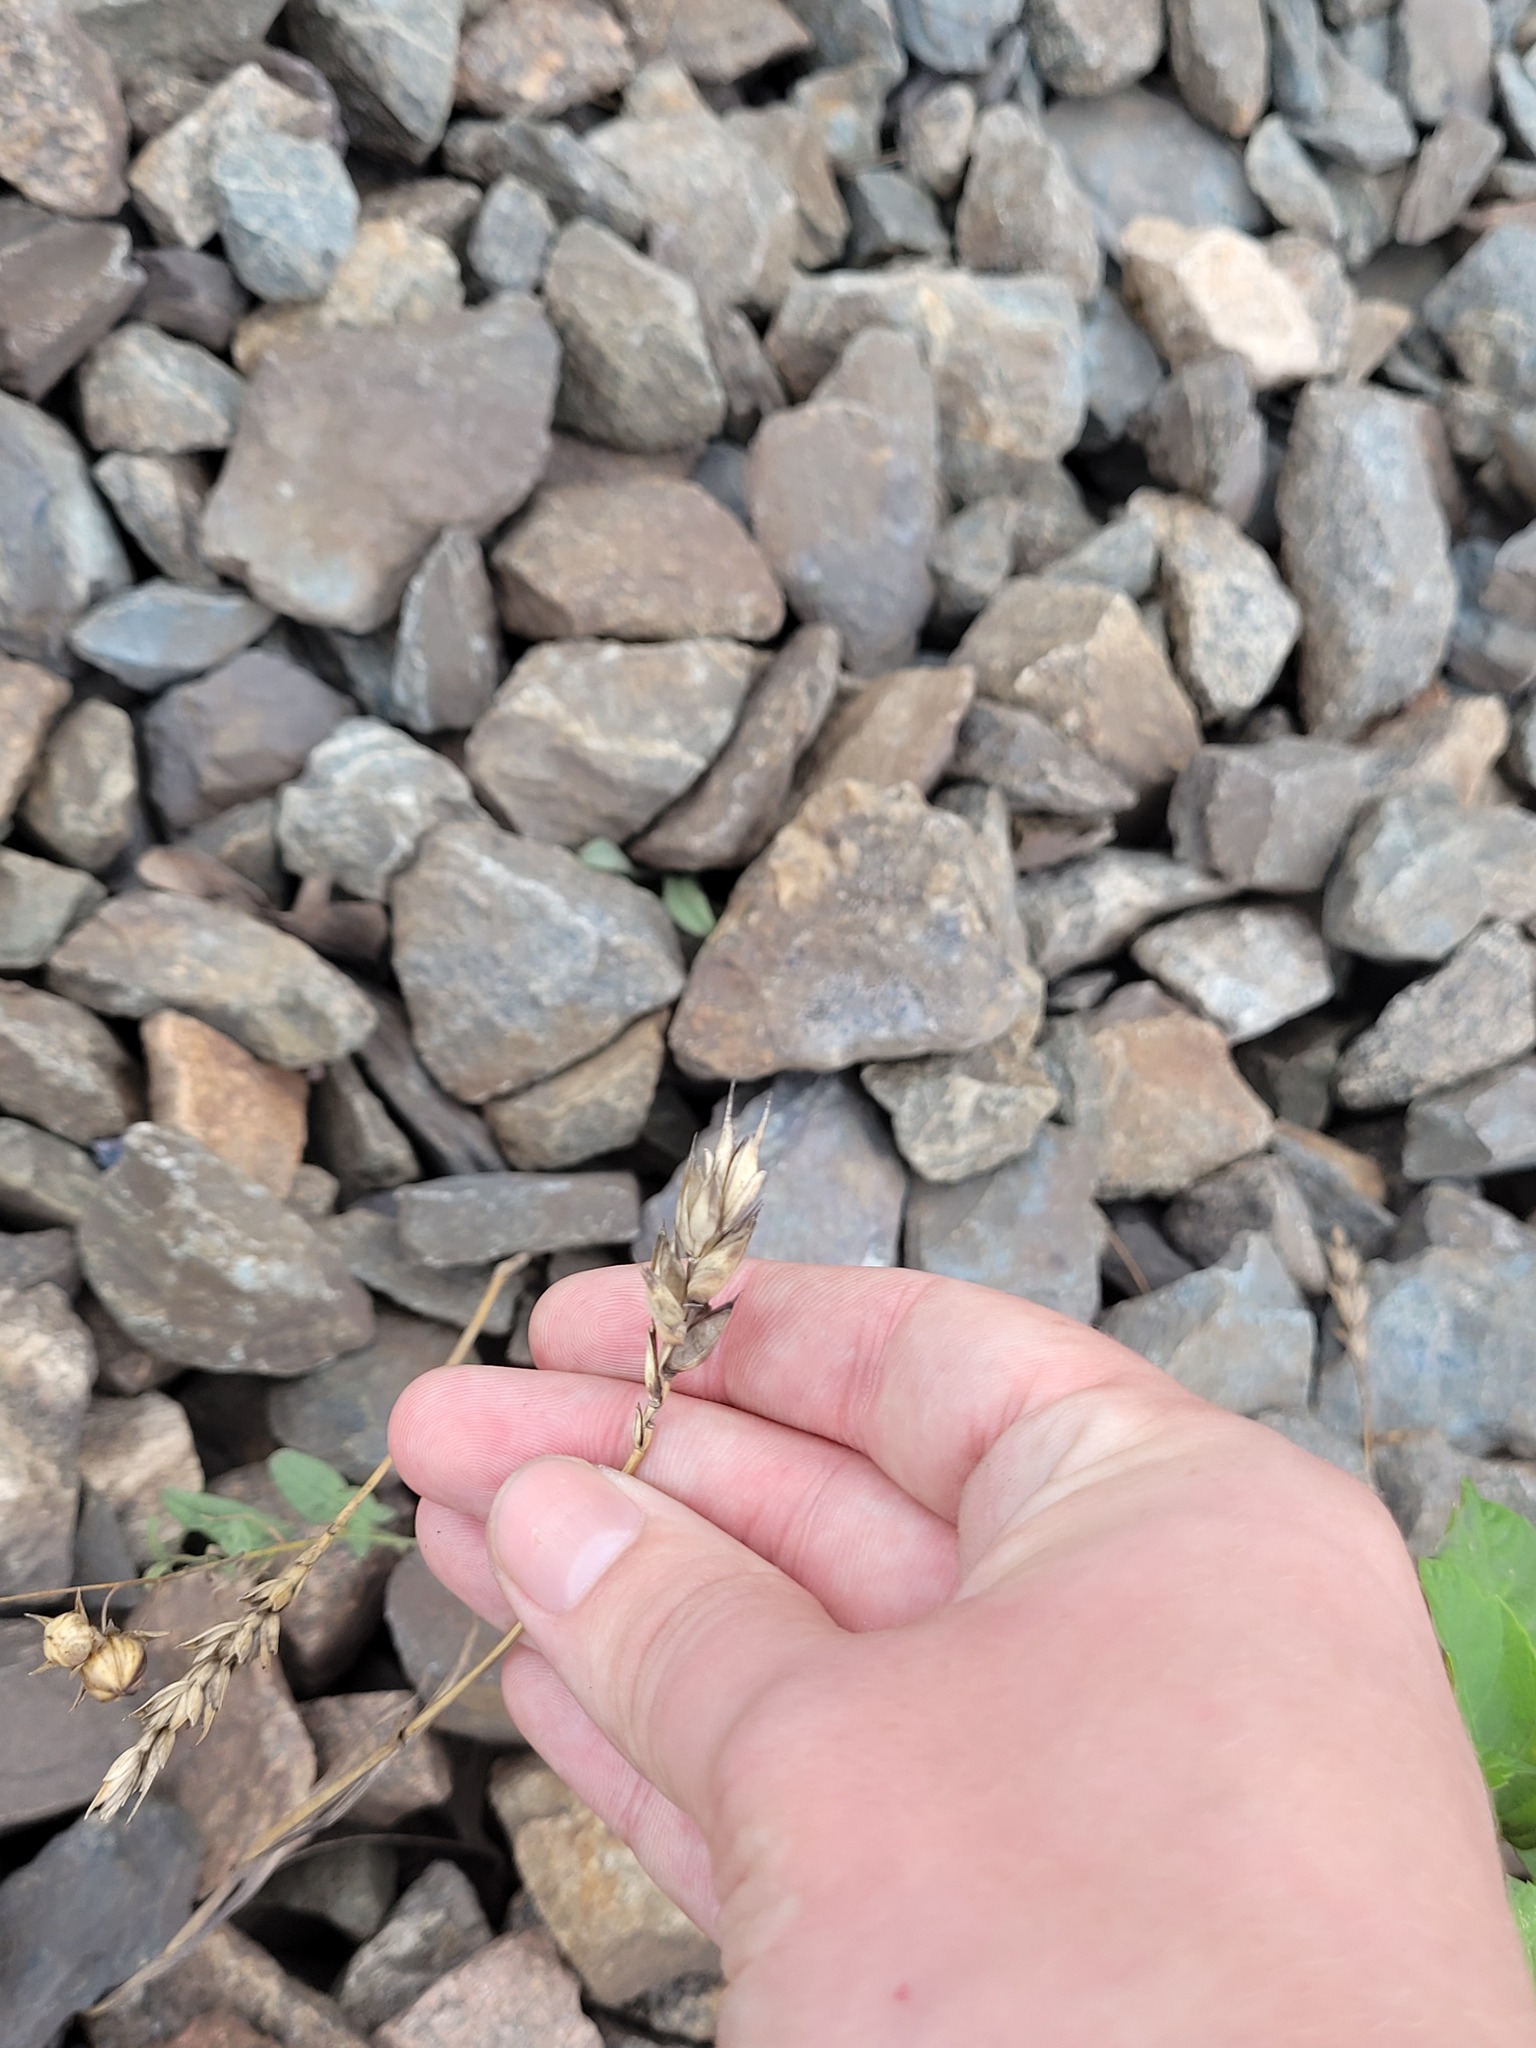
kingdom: Plantae
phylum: Tracheophyta
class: Liliopsida
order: Poales
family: Poaceae
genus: Triticum
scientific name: Triticum aestivum
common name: Common wheat
